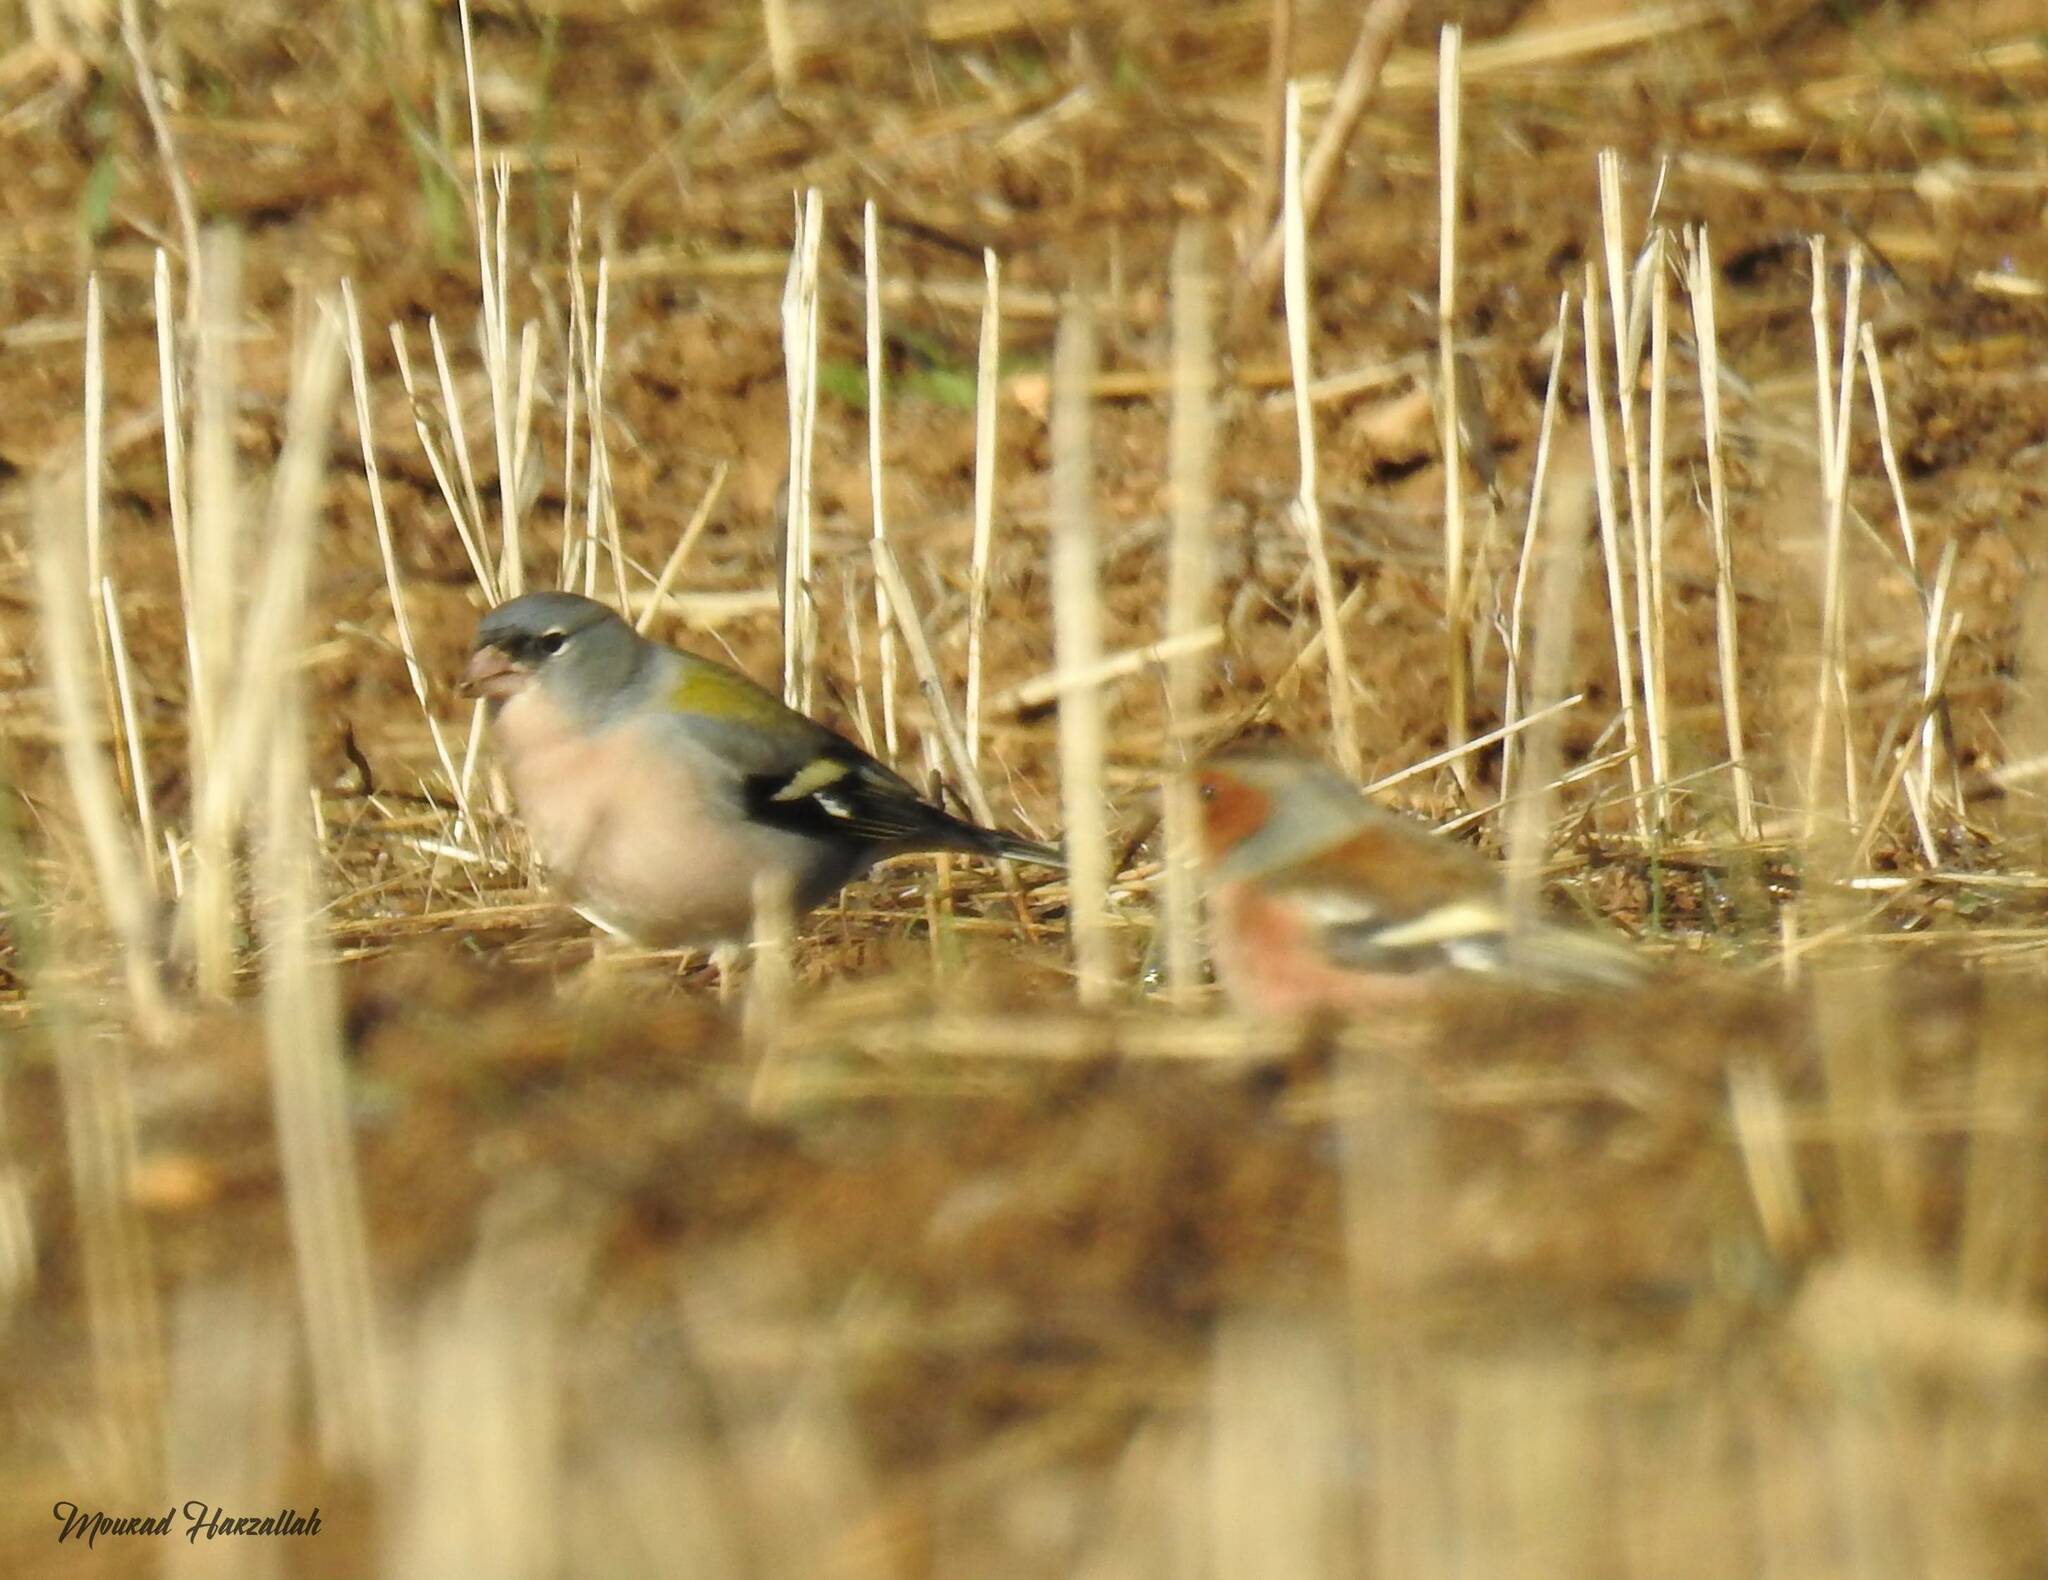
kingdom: Animalia
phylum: Chordata
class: Aves
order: Passeriformes
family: Fringillidae
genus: Fringilla
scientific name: Fringilla spodiogenys
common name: African chaffinch
